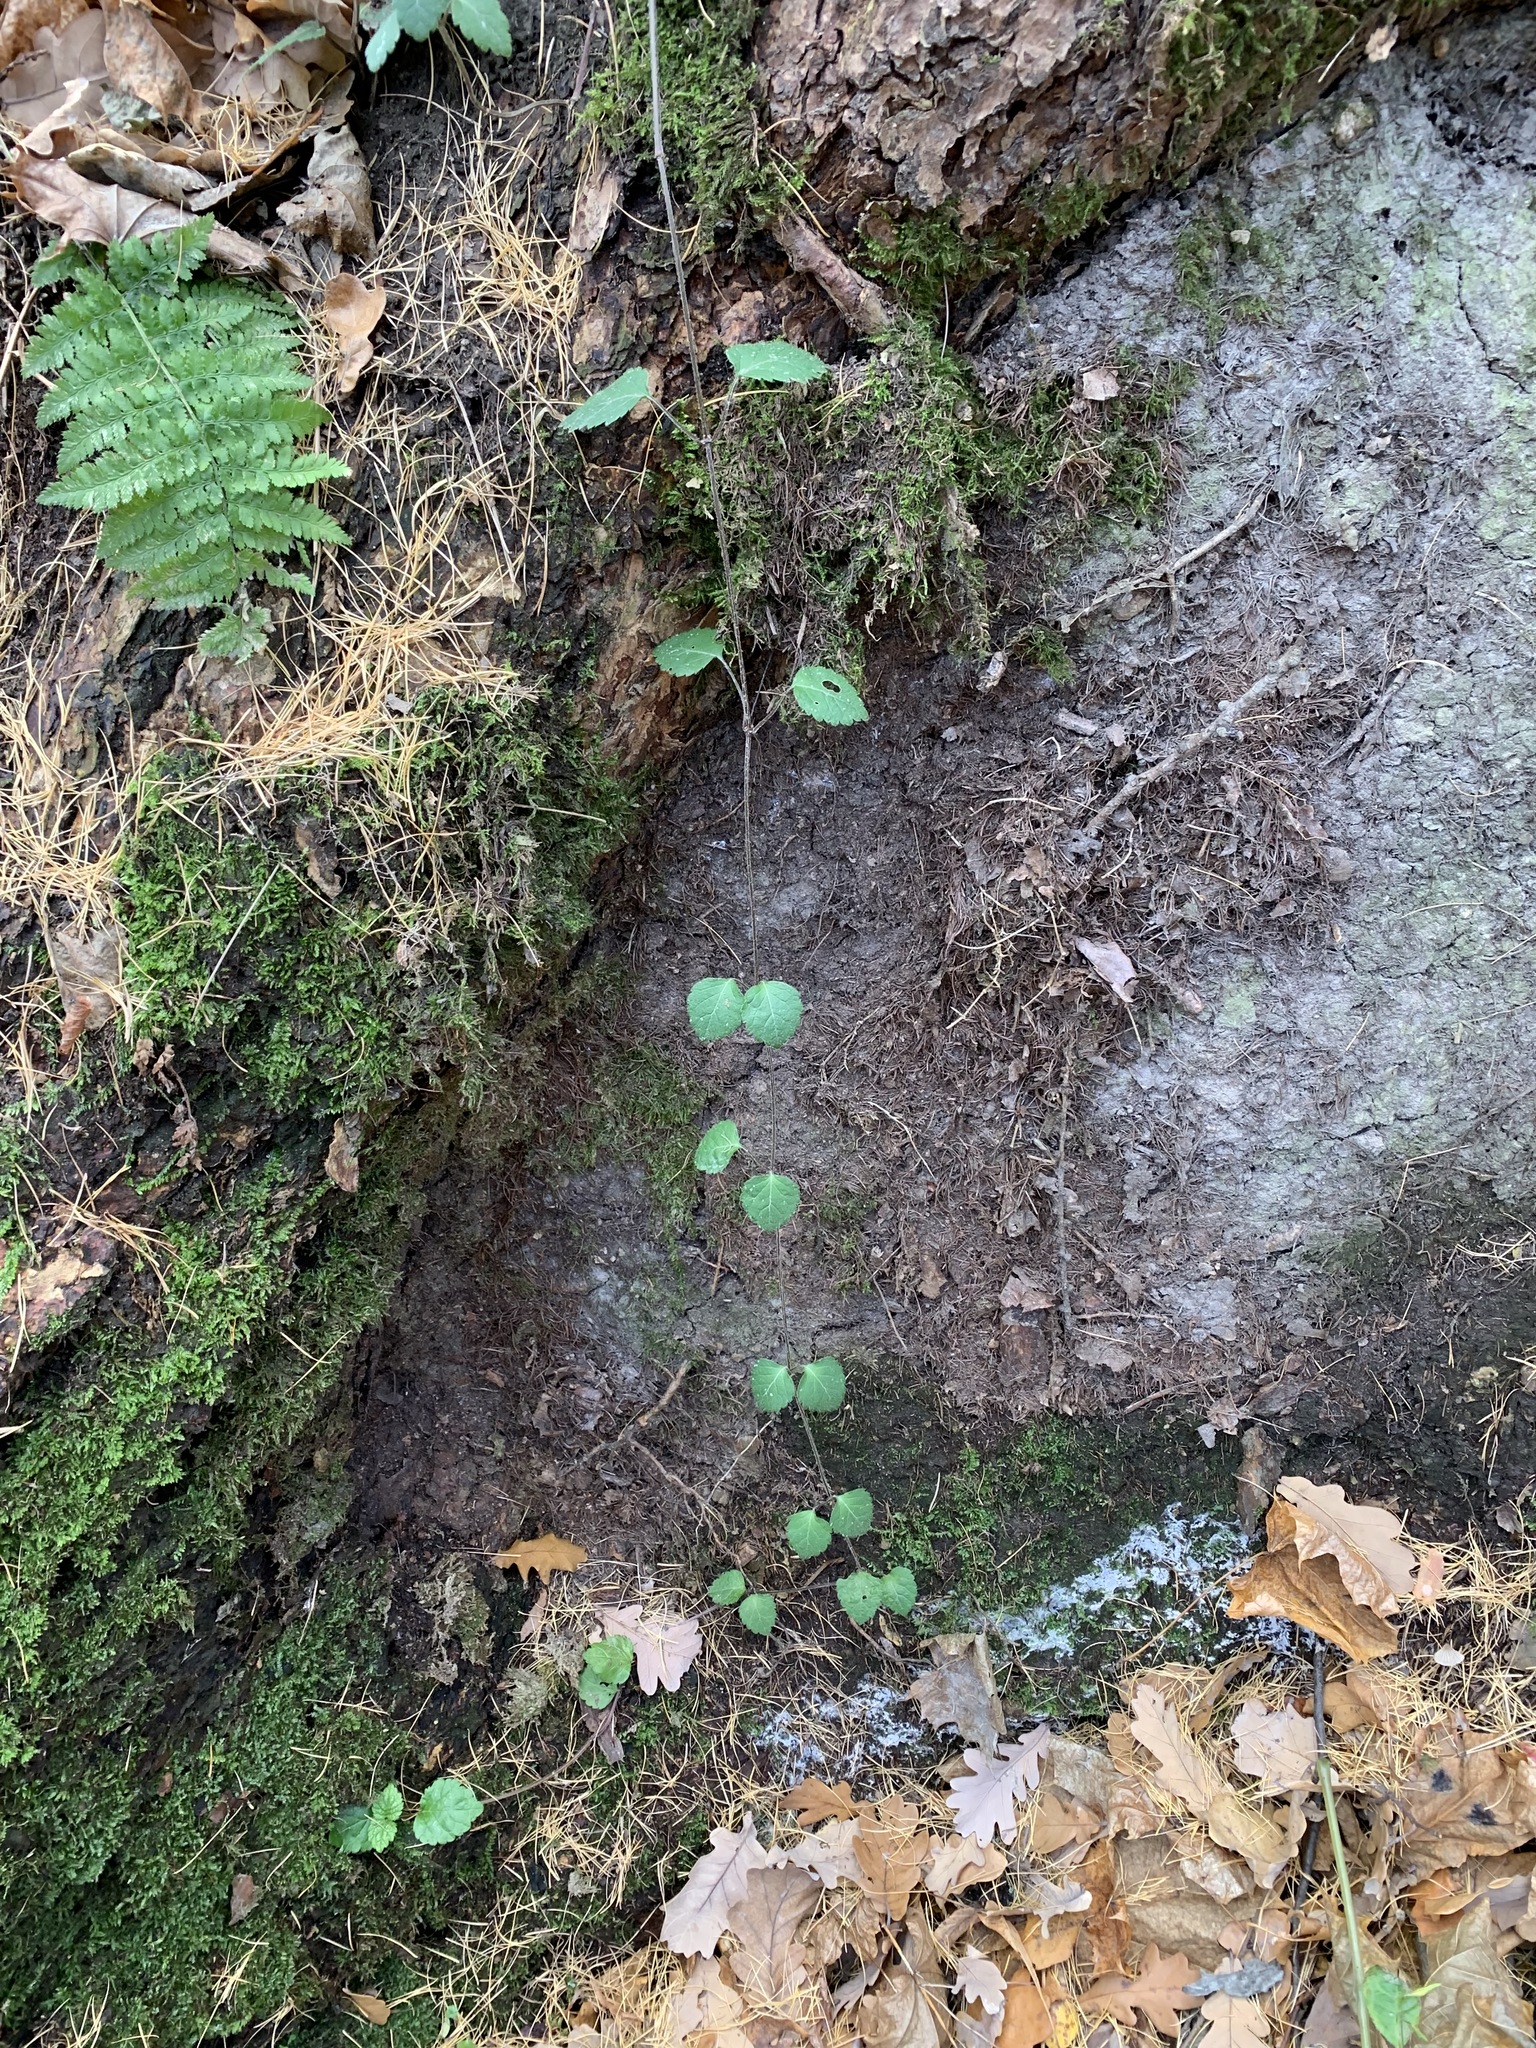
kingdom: Plantae
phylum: Tracheophyta
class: Magnoliopsida
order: Lamiales
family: Lamiaceae
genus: Lamium
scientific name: Lamium galeobdolon
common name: Yellow archangel
